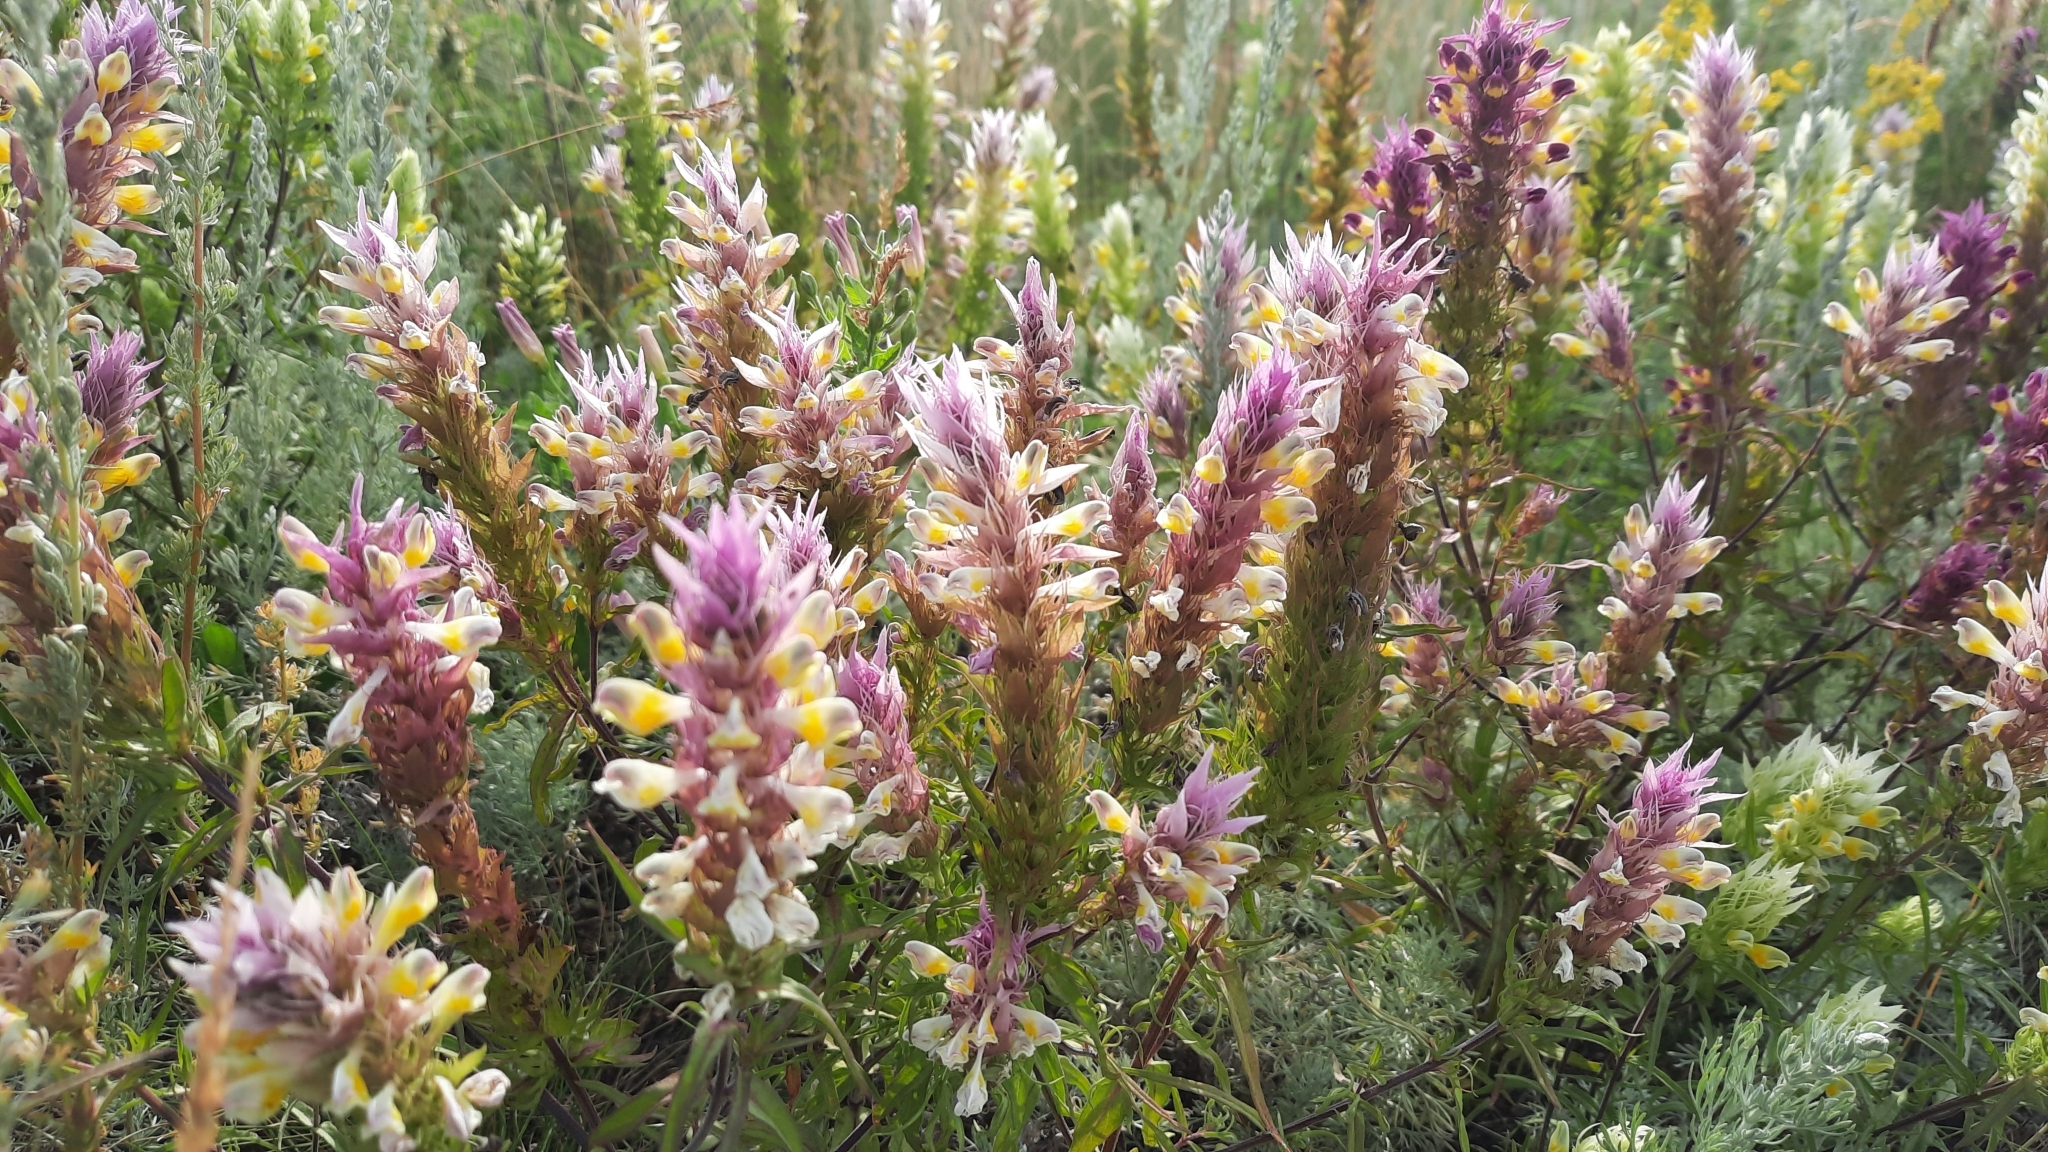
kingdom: Plantae
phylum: Tracheophyta
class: Magnoliopsida
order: Lamiales
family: Orobanchaceae
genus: Melampyrum
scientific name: Melampyrum arvense
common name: Field cow-wheat
